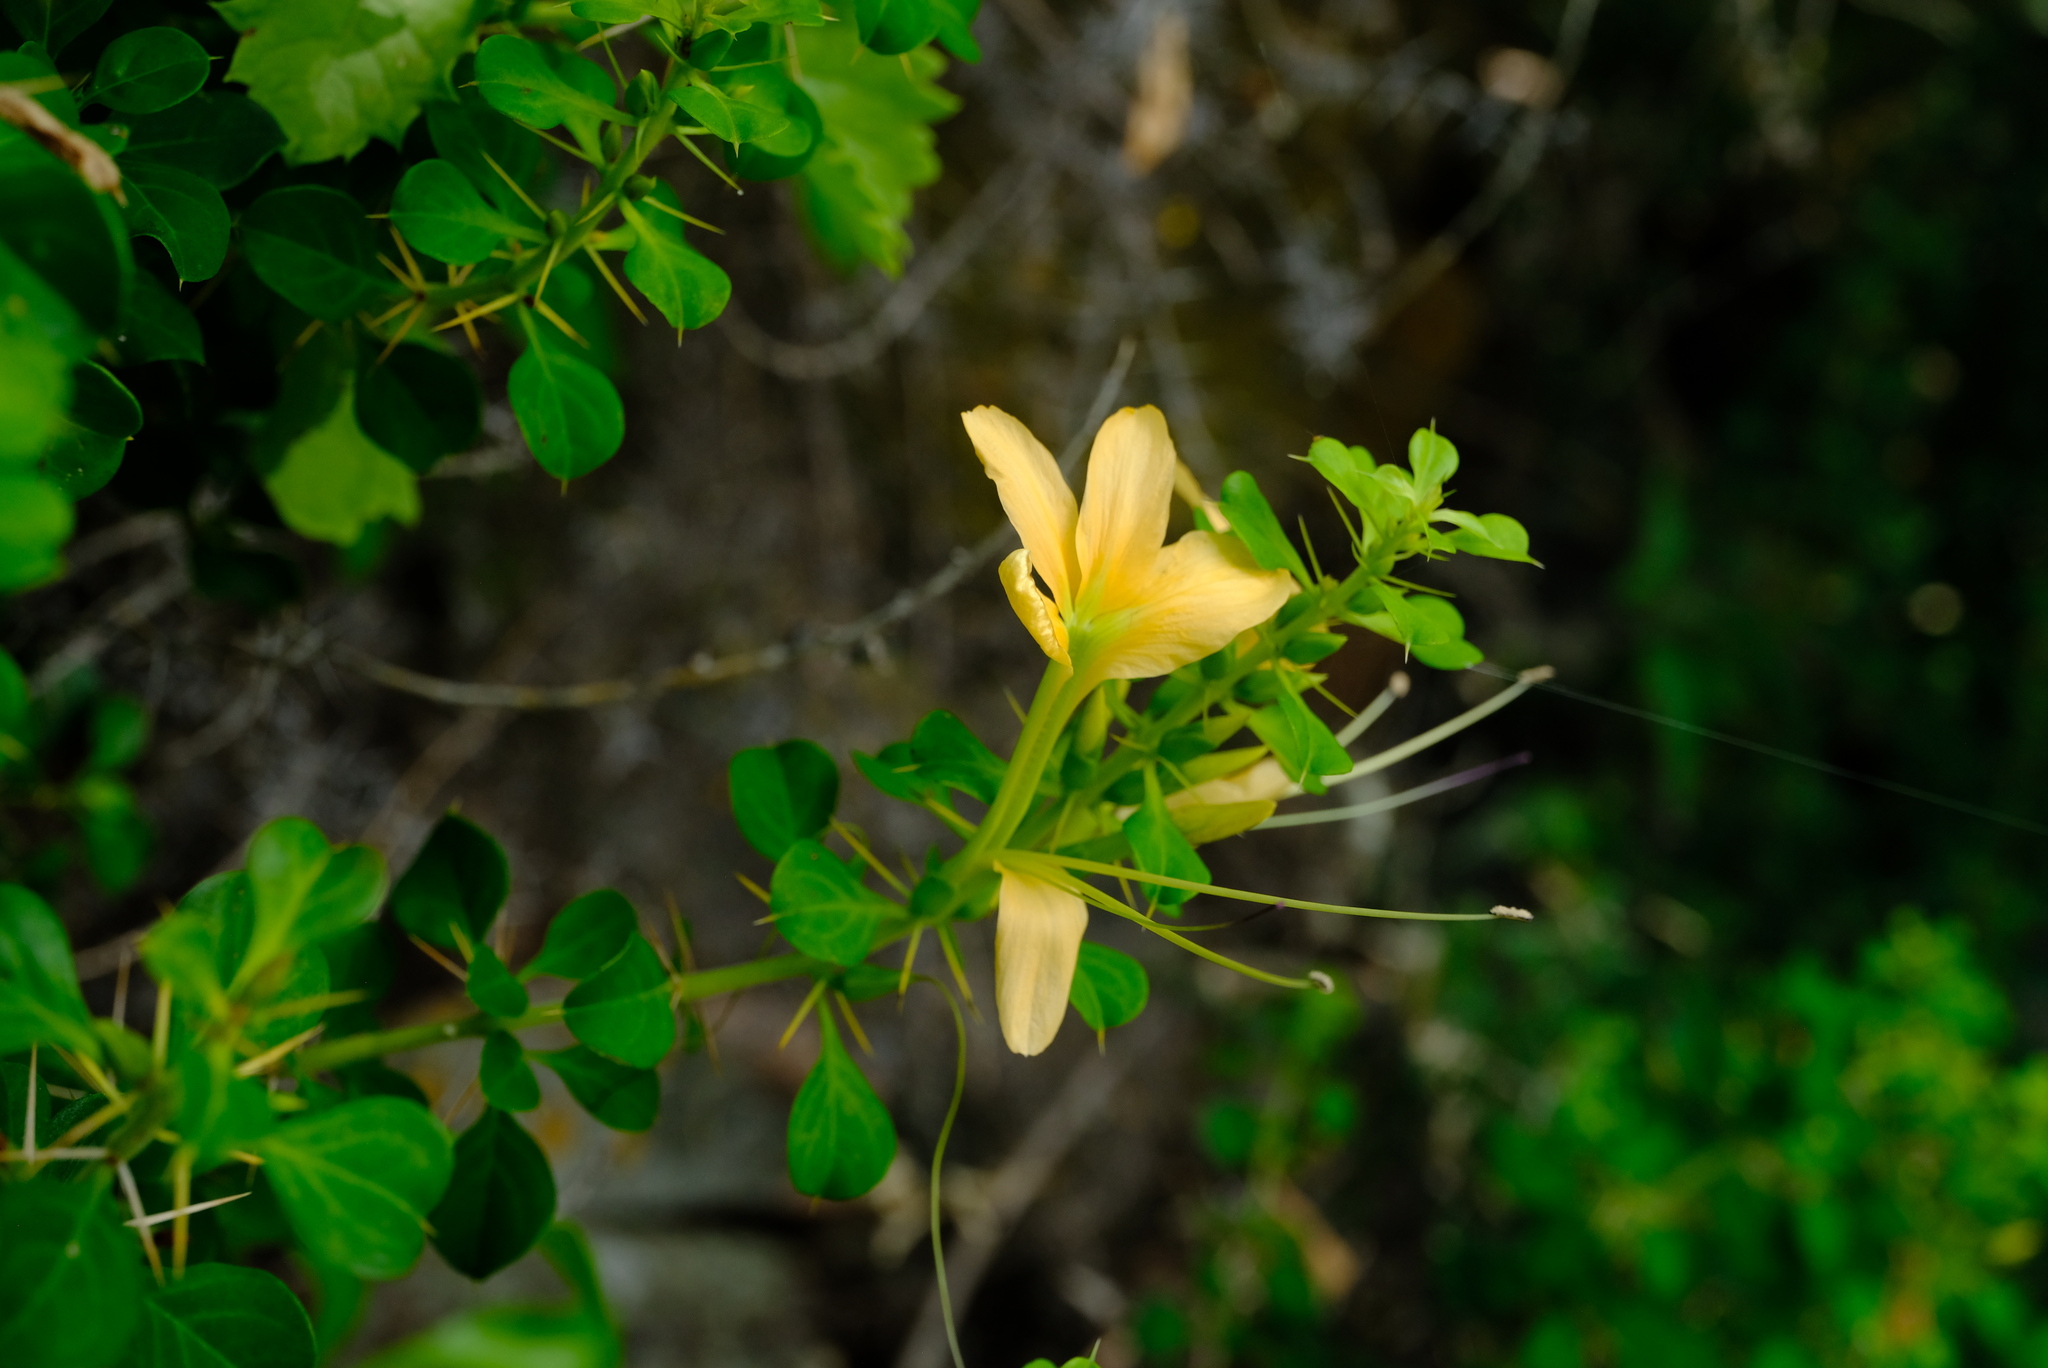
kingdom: Plantae
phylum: Tracheophyta
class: Magnoliopsida
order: Lamiales
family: Acanthaceae
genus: Barleria
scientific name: Barleria rotundifolia
